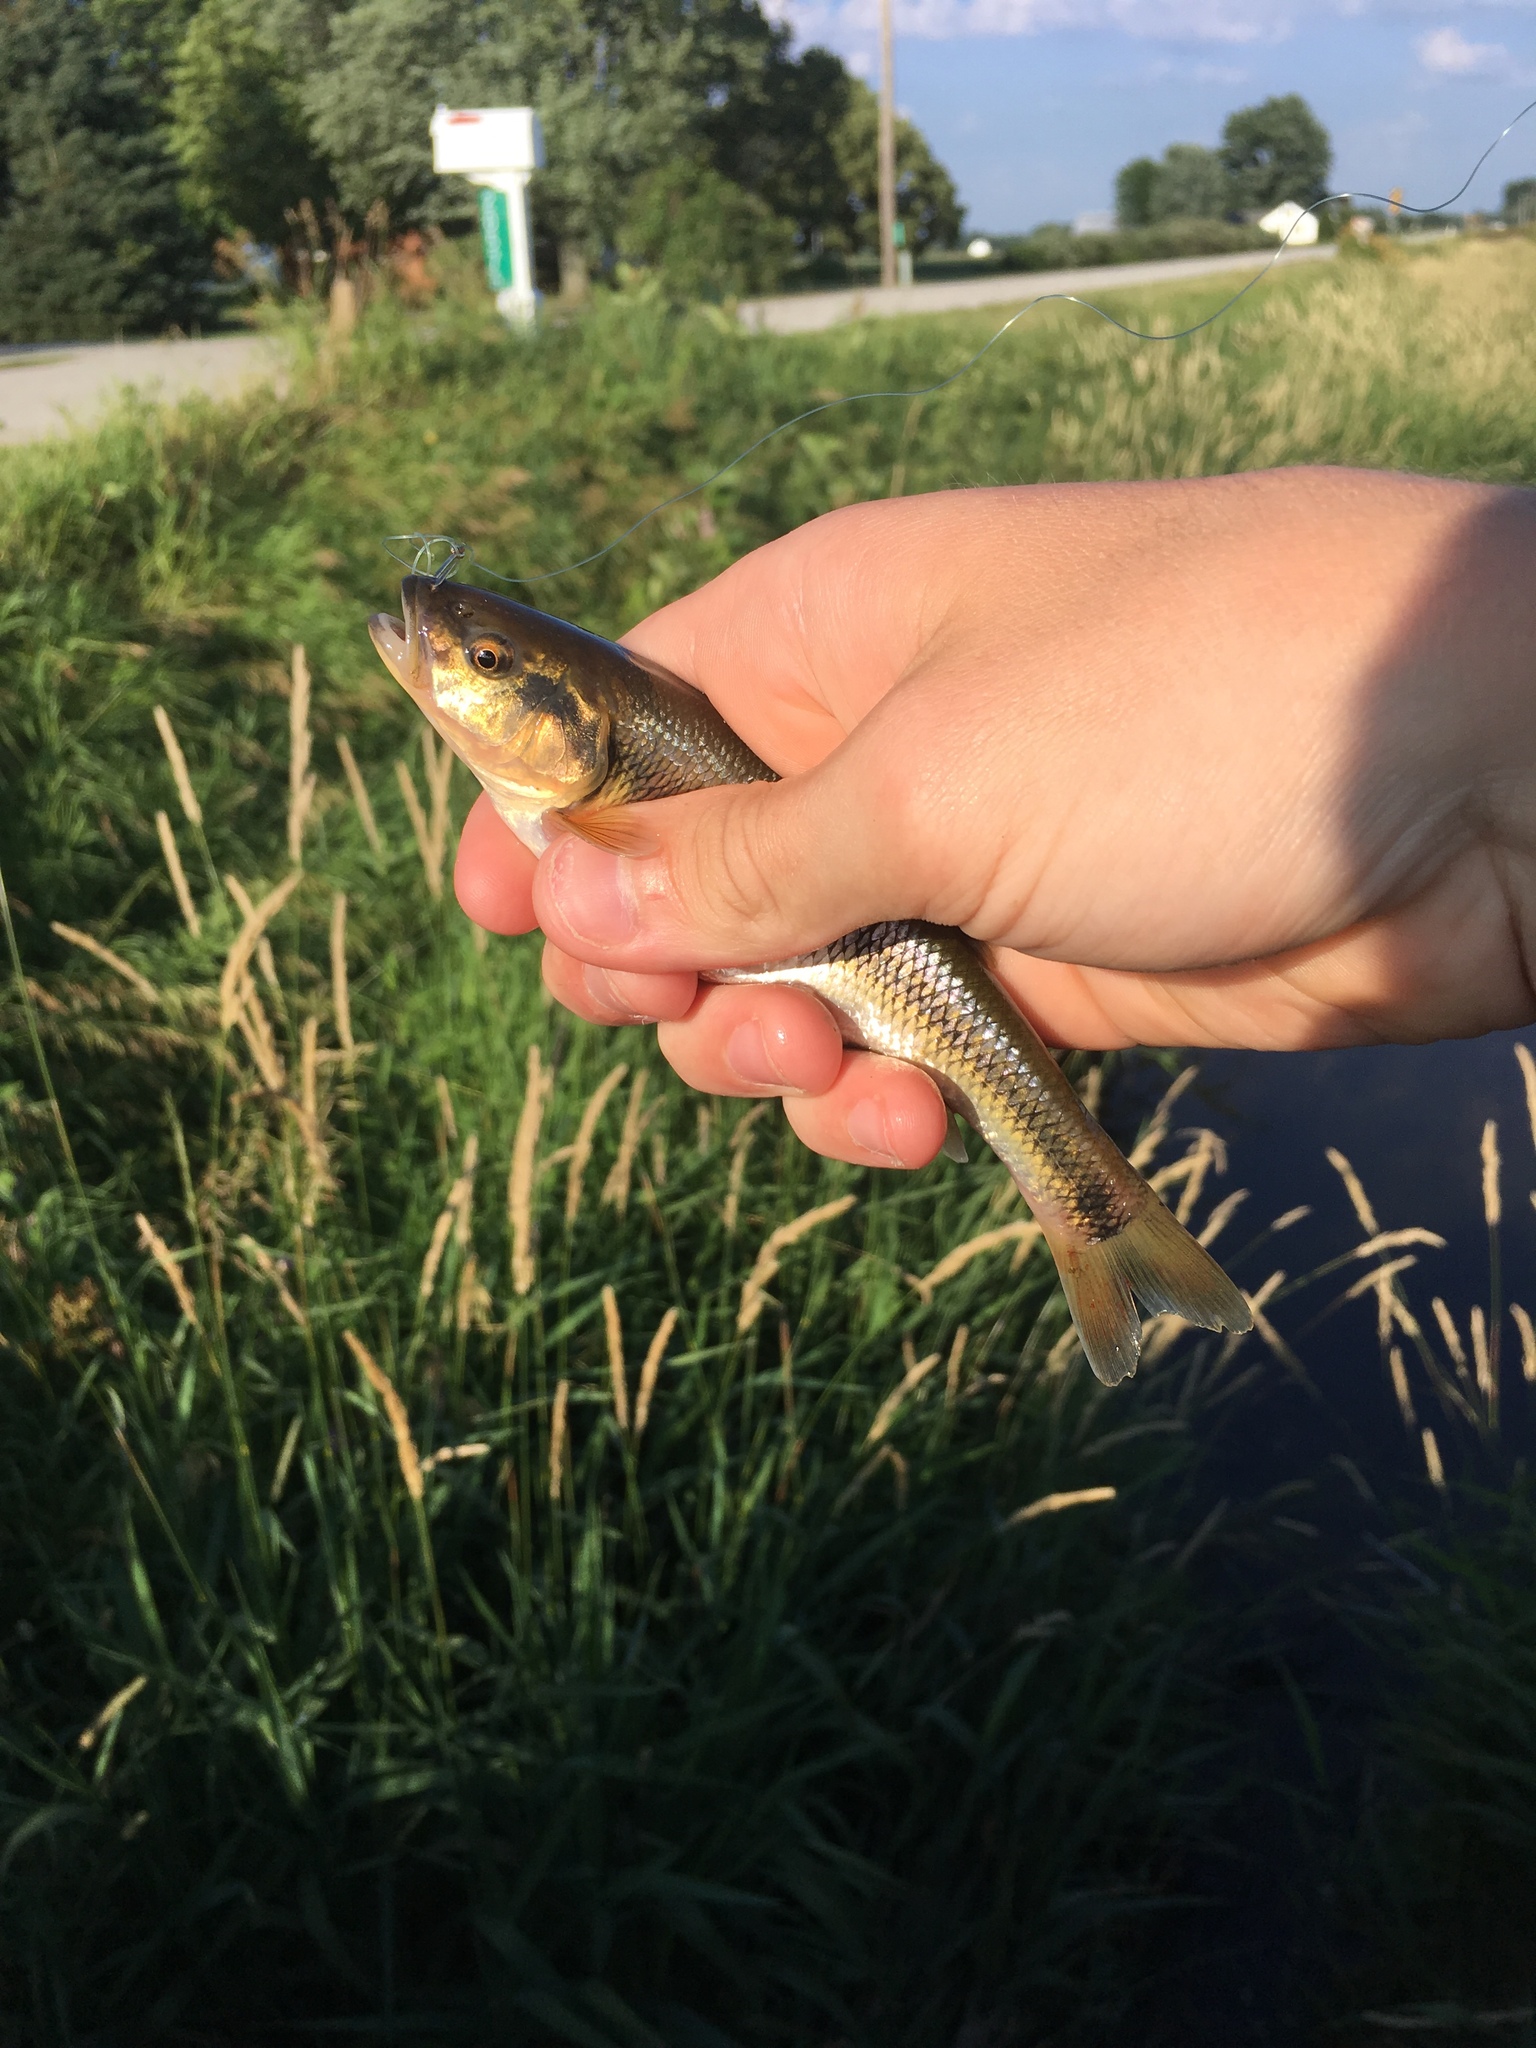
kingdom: Animalia
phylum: Chordata
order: Cypriniformes
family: Cyprinidae
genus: Semotilus
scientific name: Semotilus atromaculatus
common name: Creek chub
